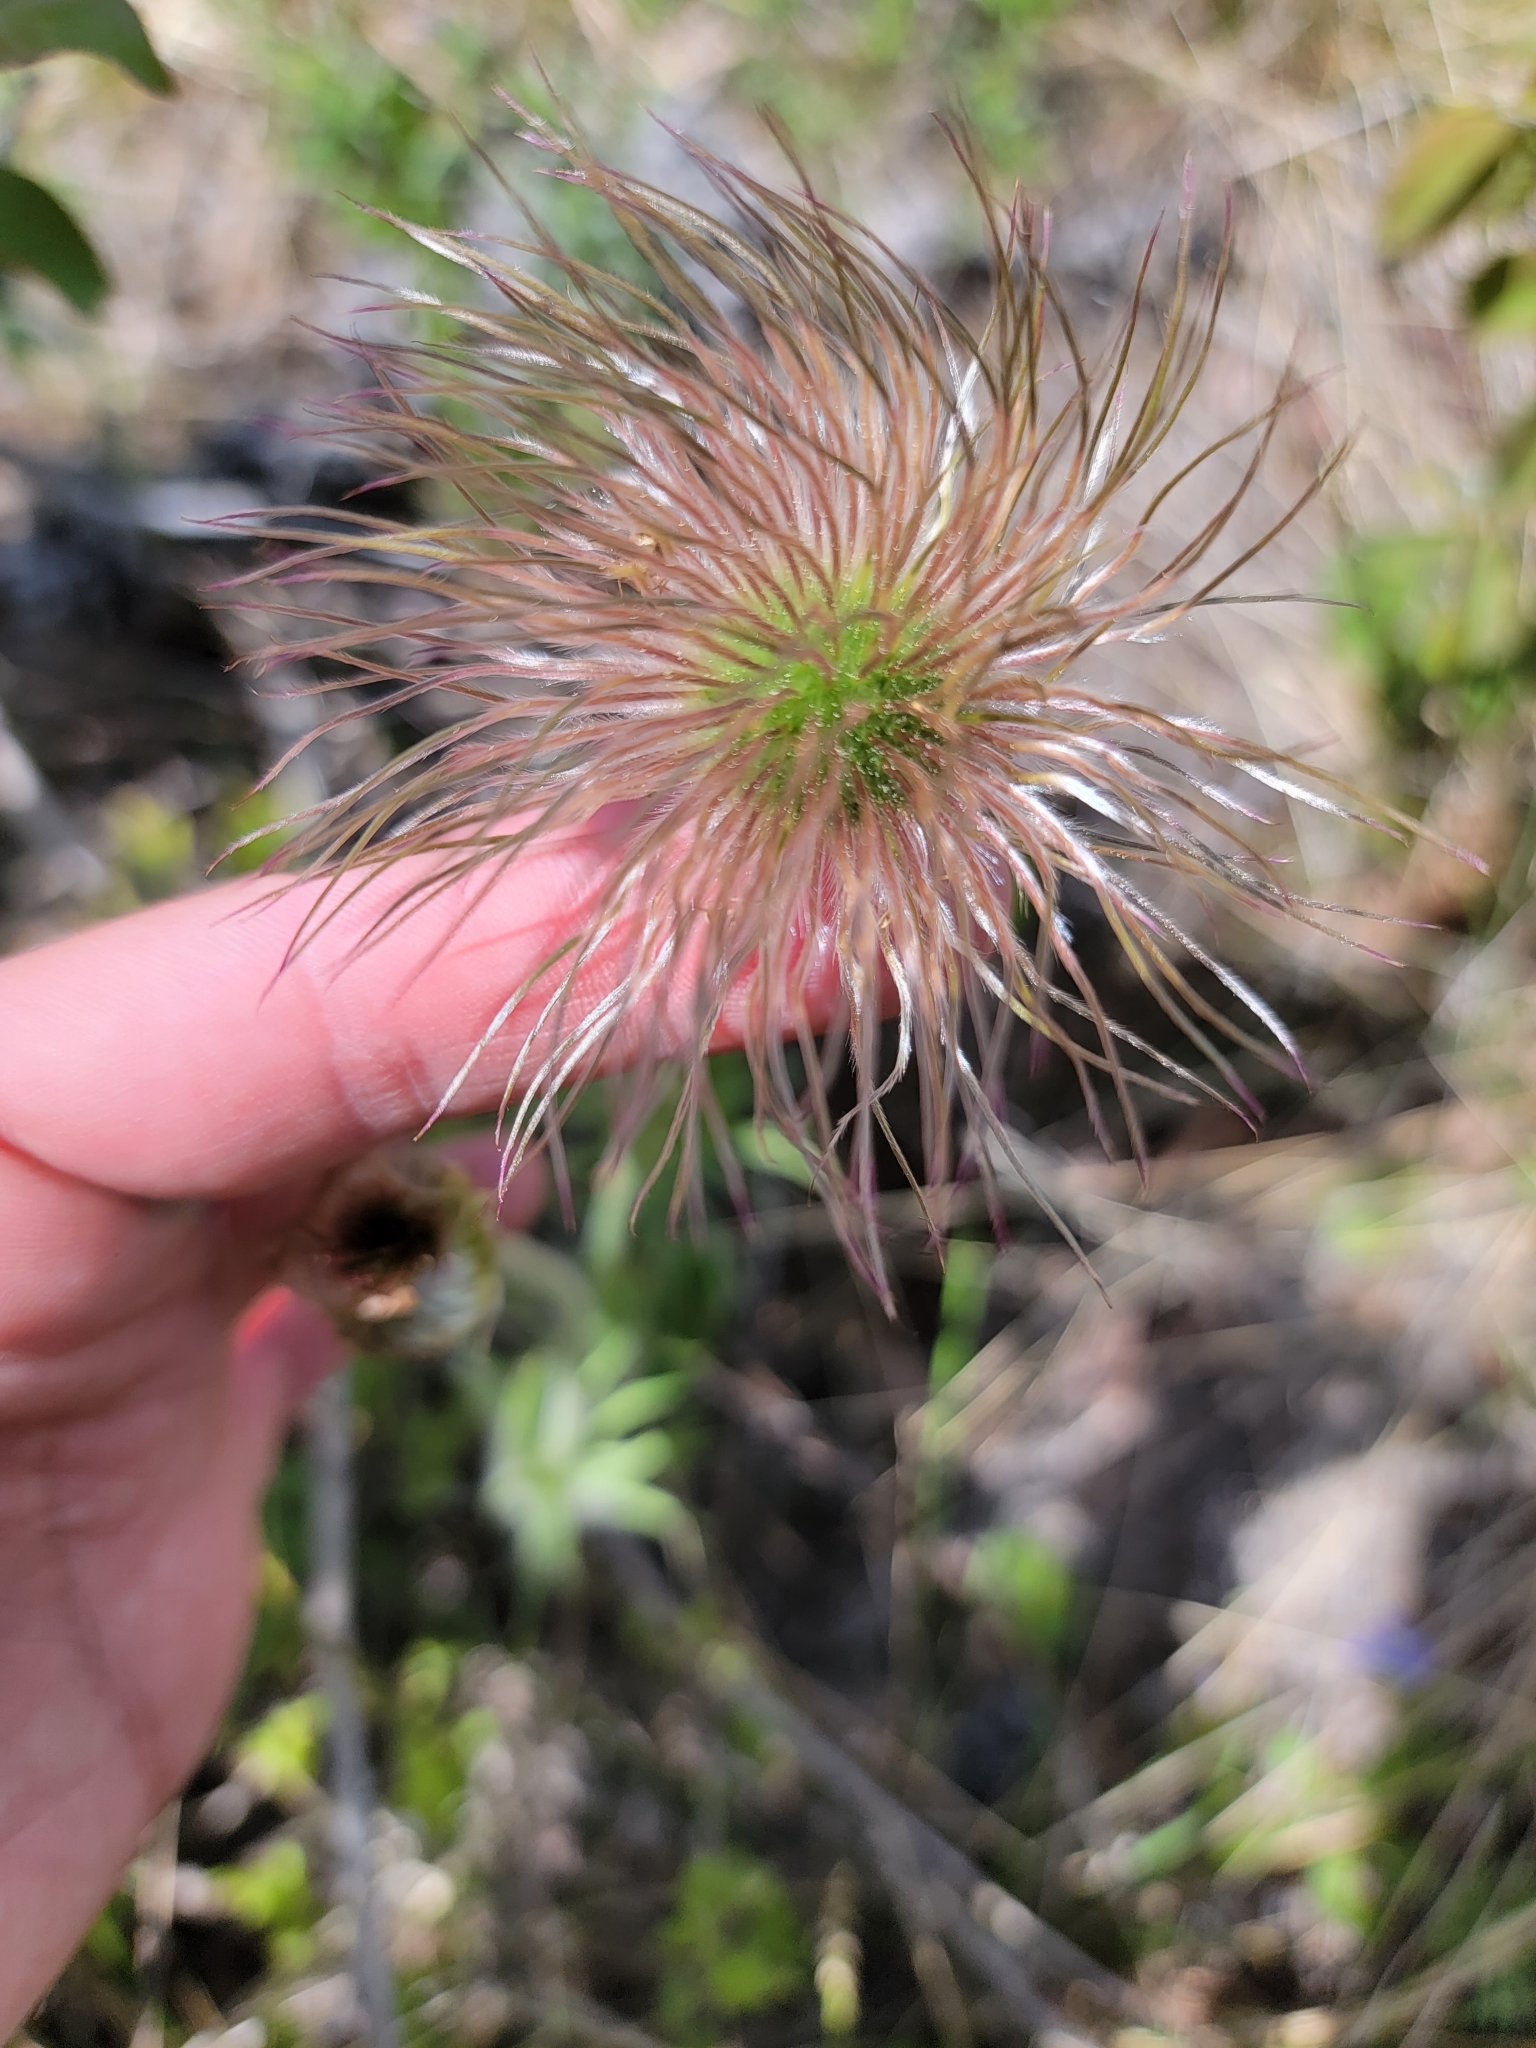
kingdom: Plantae
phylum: Tracheophyta
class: Magnoliopsida
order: Ranunculales
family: Ranunculaceae
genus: Pulsatilla
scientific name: Pulsatilla nuttalliana
